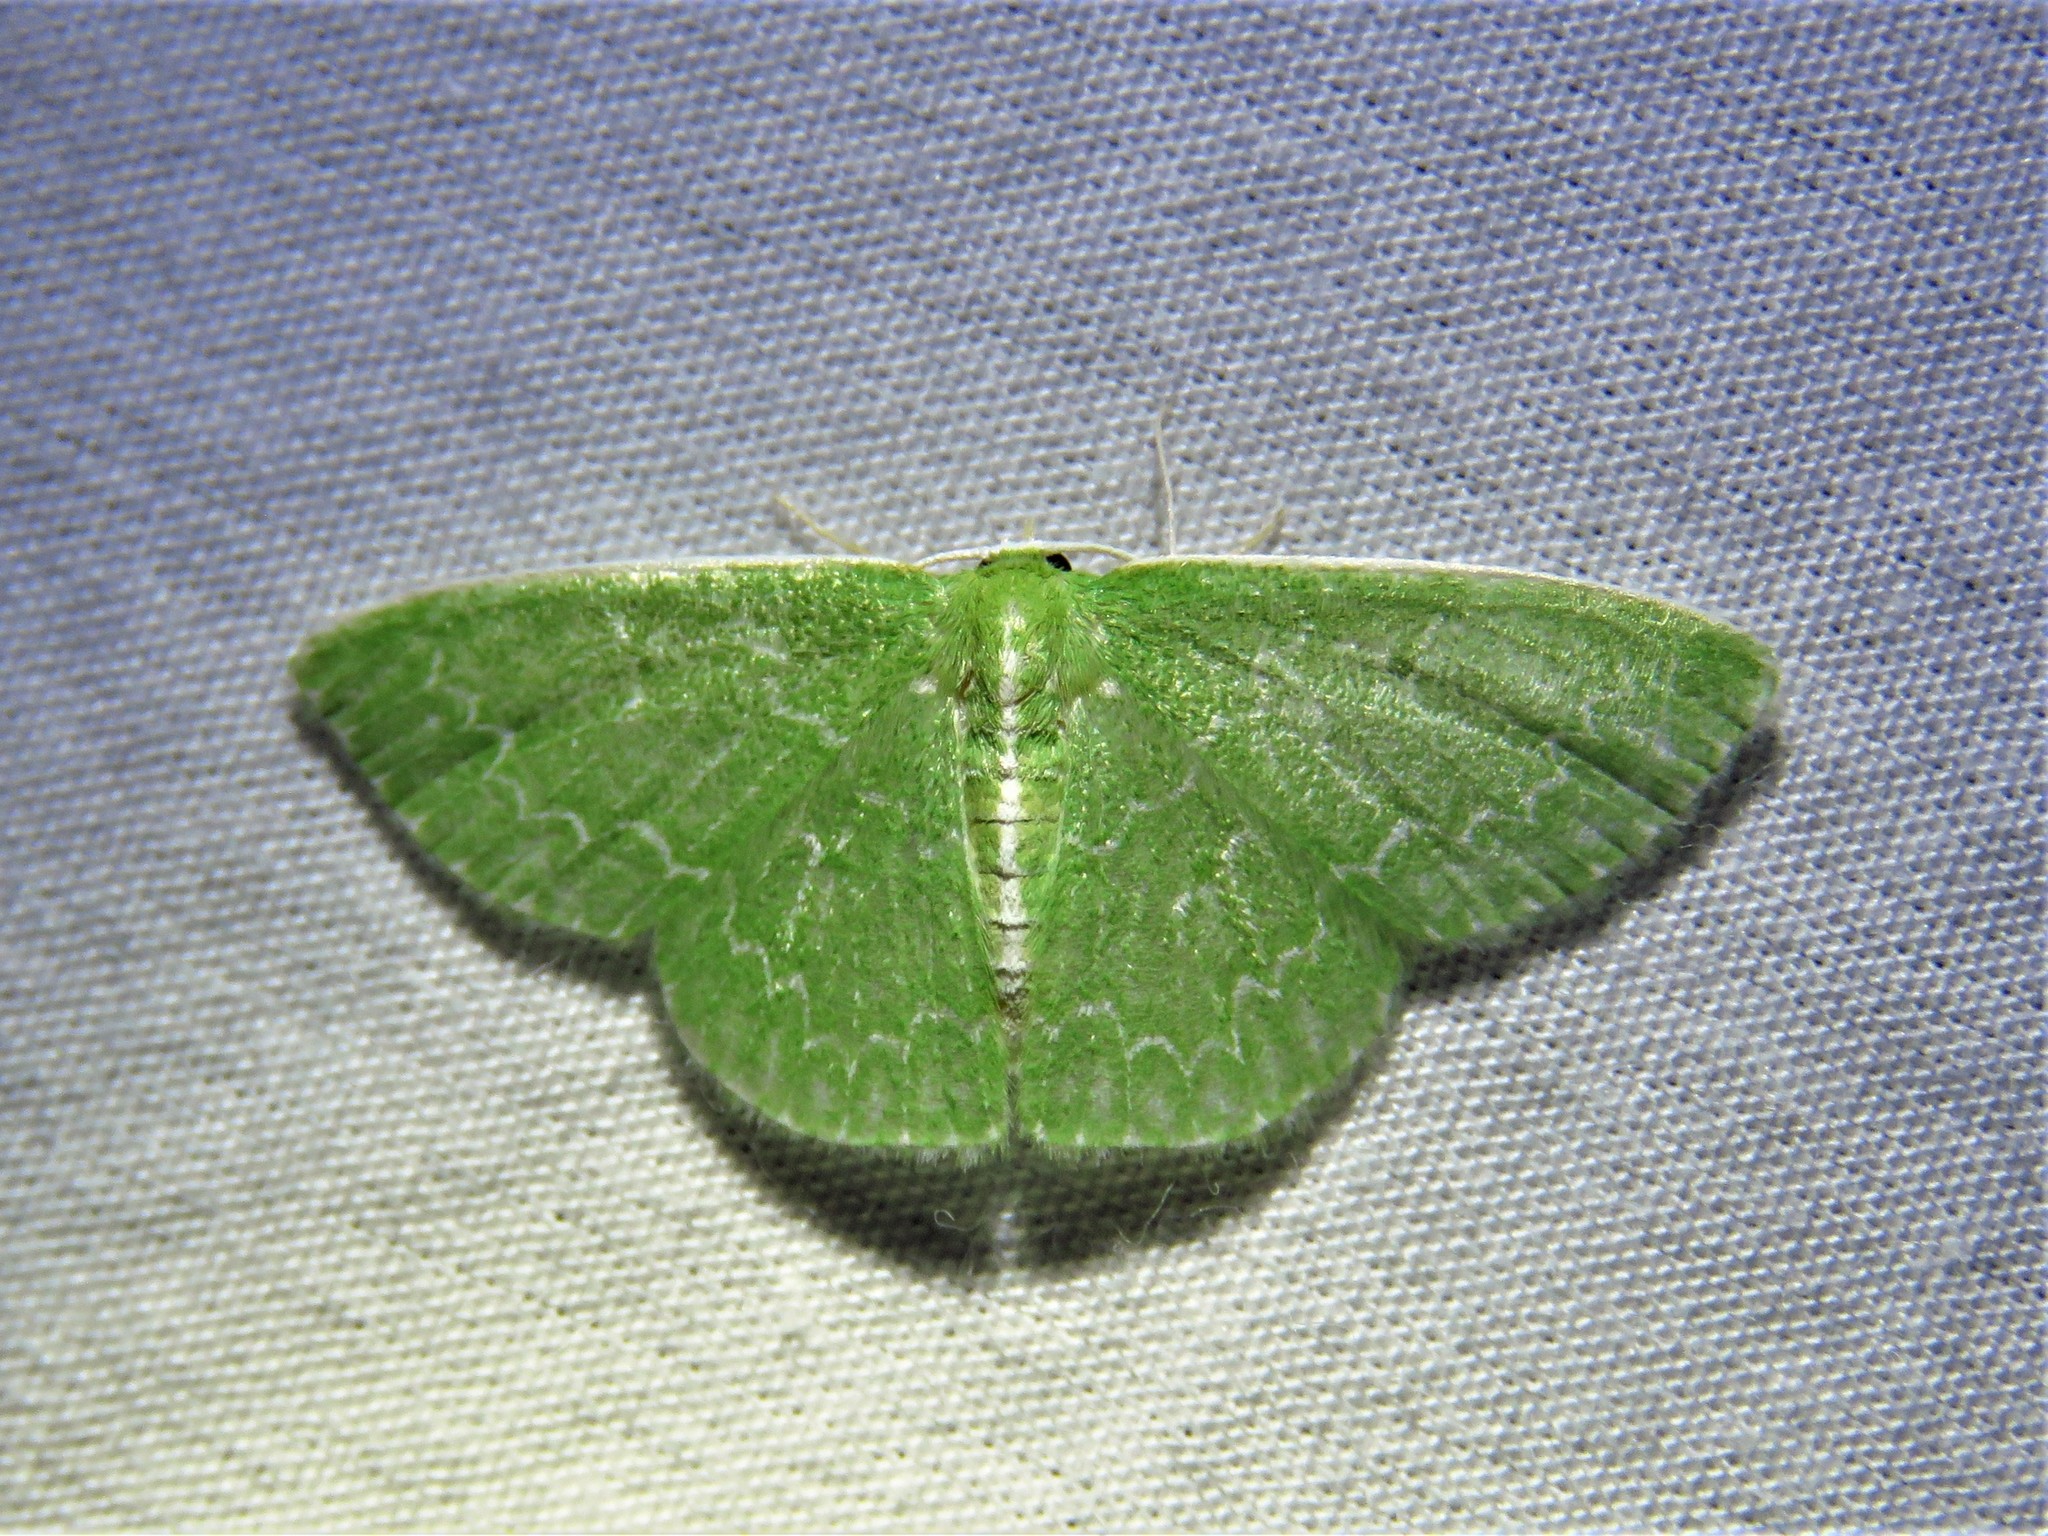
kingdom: Animalia
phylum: Arthropoda
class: Insecta
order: Lepidoptera
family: Geometridae
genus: Synchlora
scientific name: Synchlora frondaria
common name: Southern emerald
